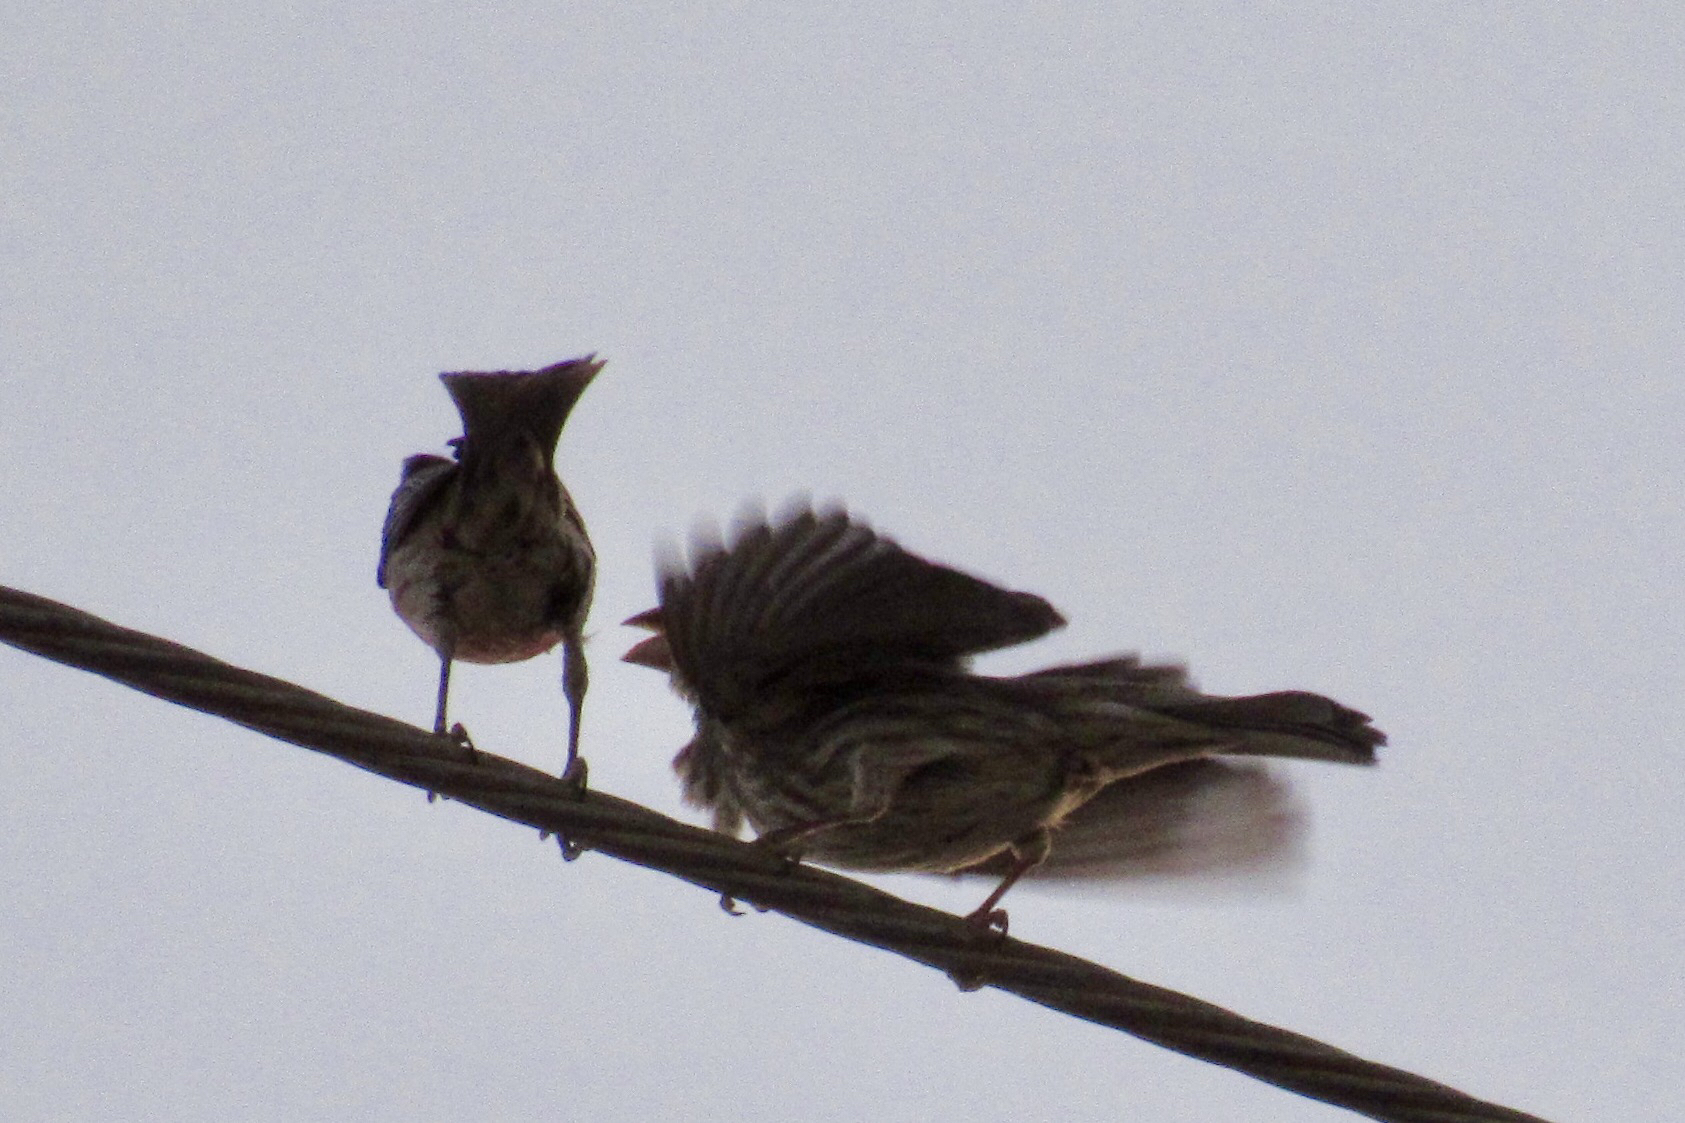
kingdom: Animalia
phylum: Chordata
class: Aves
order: Passeriformes
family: Fringillidae
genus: Haemorhous
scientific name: Haemorhous mexicanus
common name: House finch
